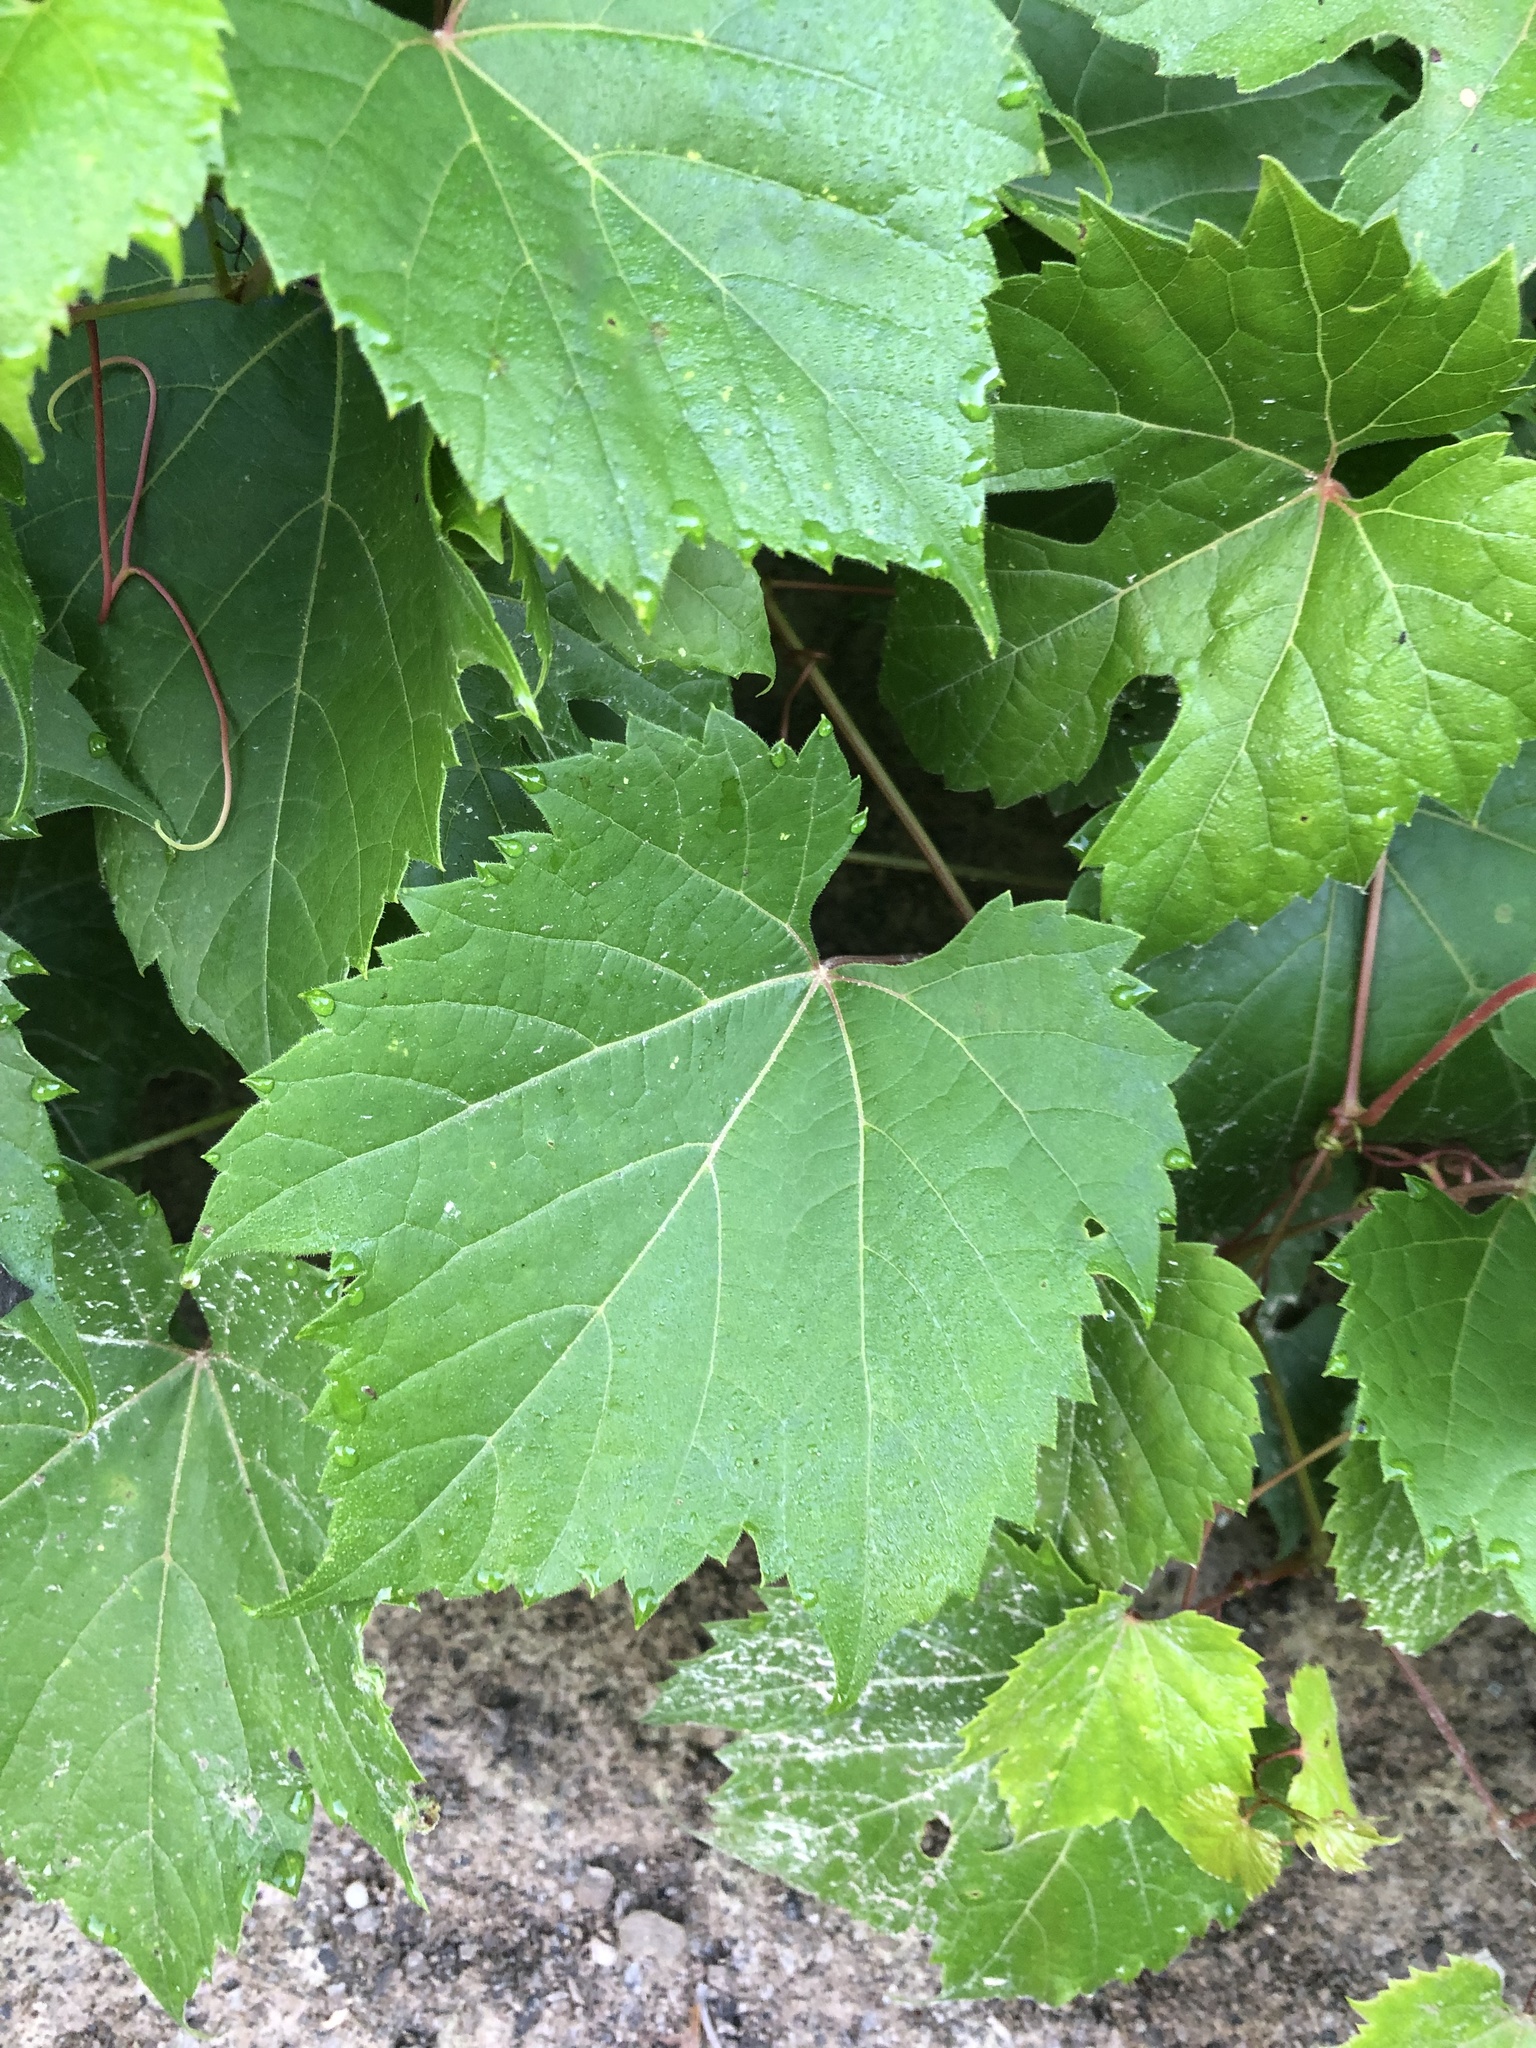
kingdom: Plantae
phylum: Tracheophyta
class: Magnoliopsida
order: Vitales
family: Vitaceae
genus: Vitis
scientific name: Vitis riparia
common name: Frost grape
